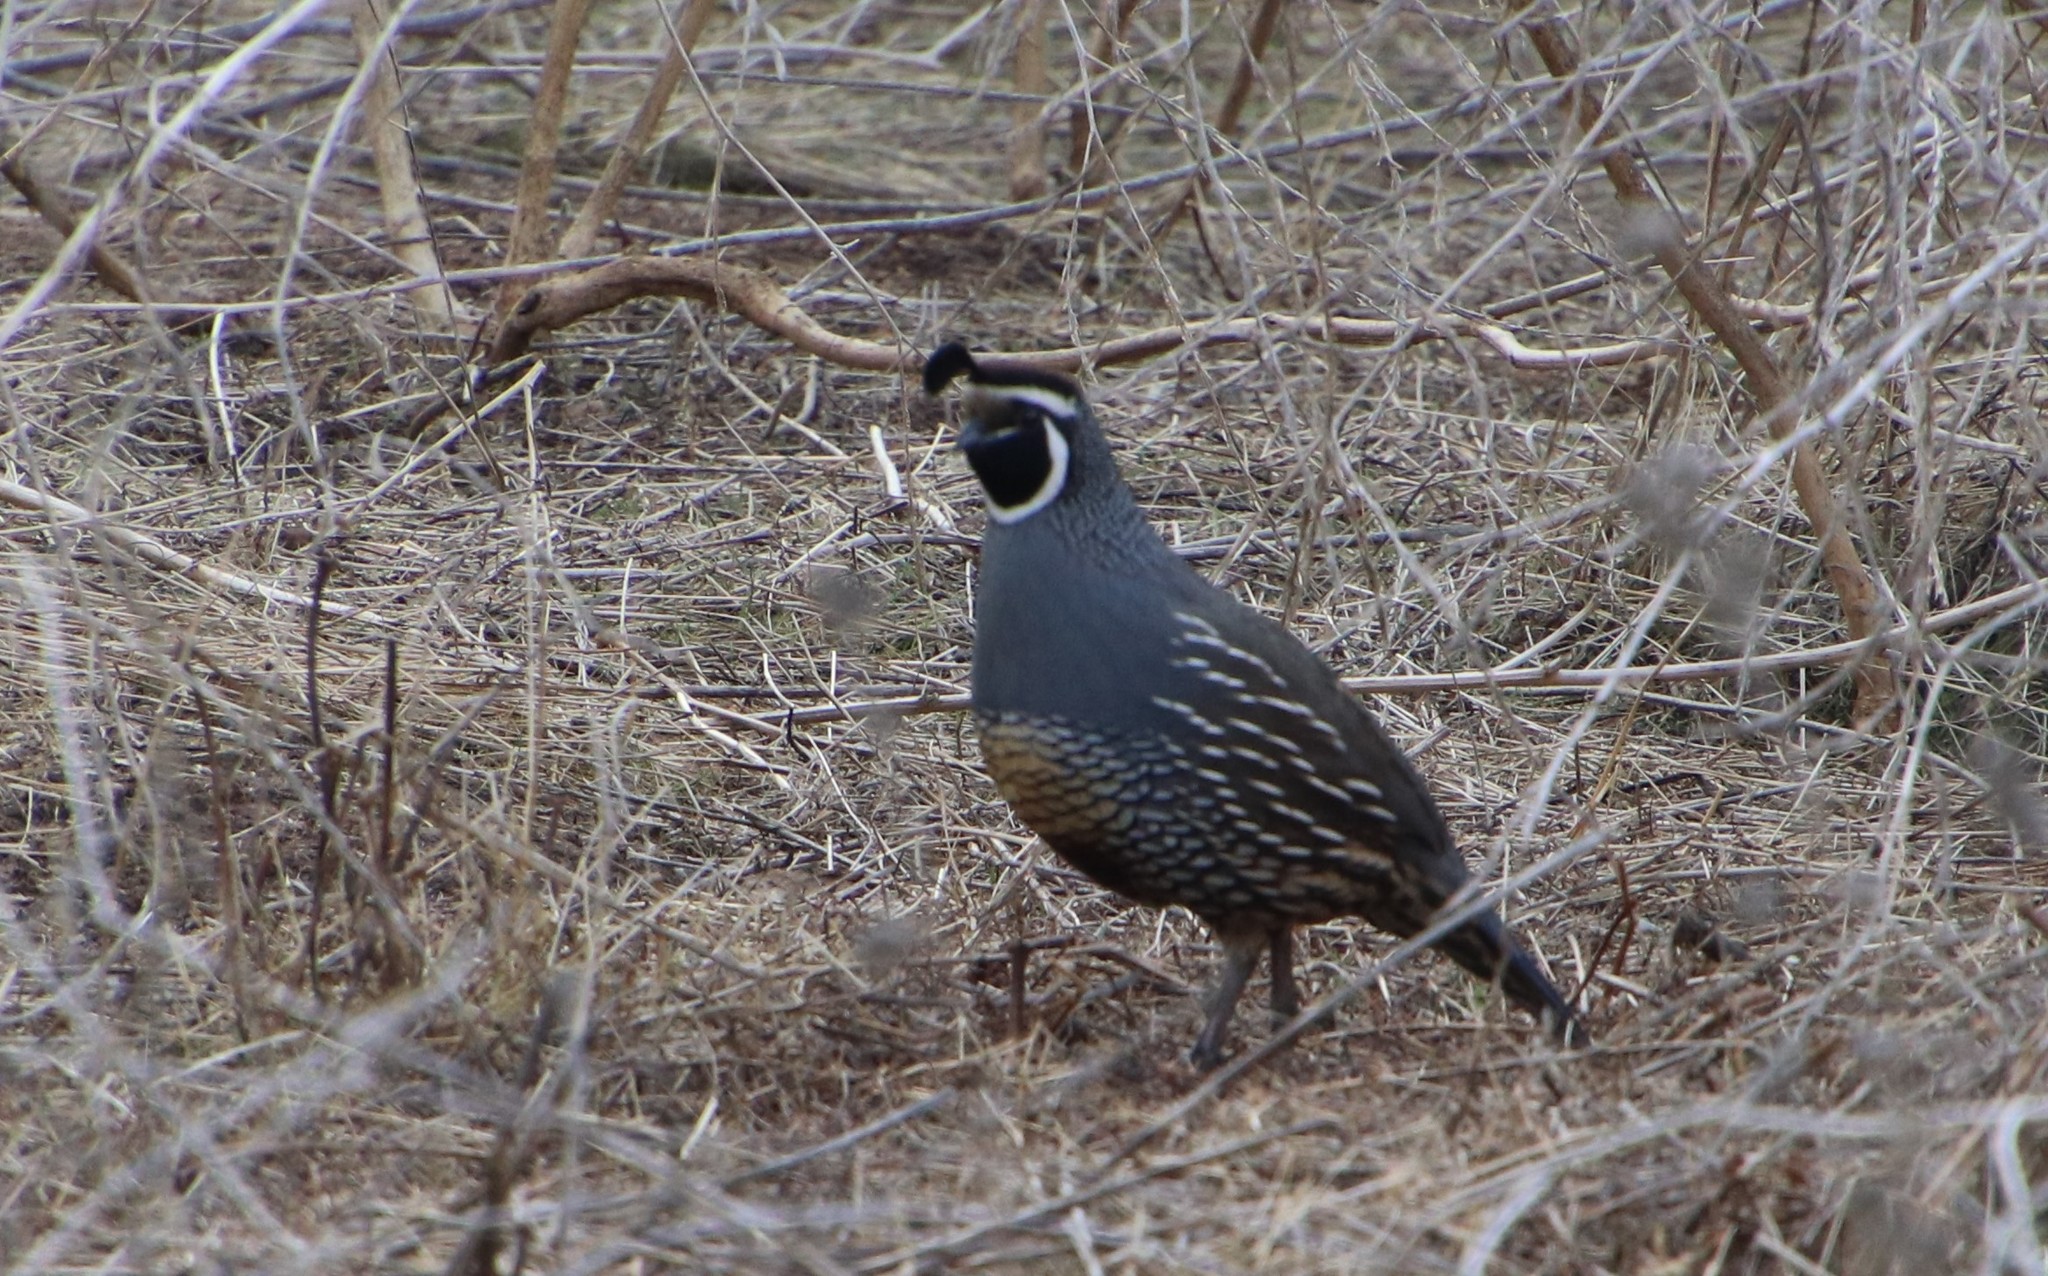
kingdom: Animalia
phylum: Chordata
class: Aves
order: Galliformes
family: Odontophoridae
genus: Callipepla
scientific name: Callipepla californica
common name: California quail
